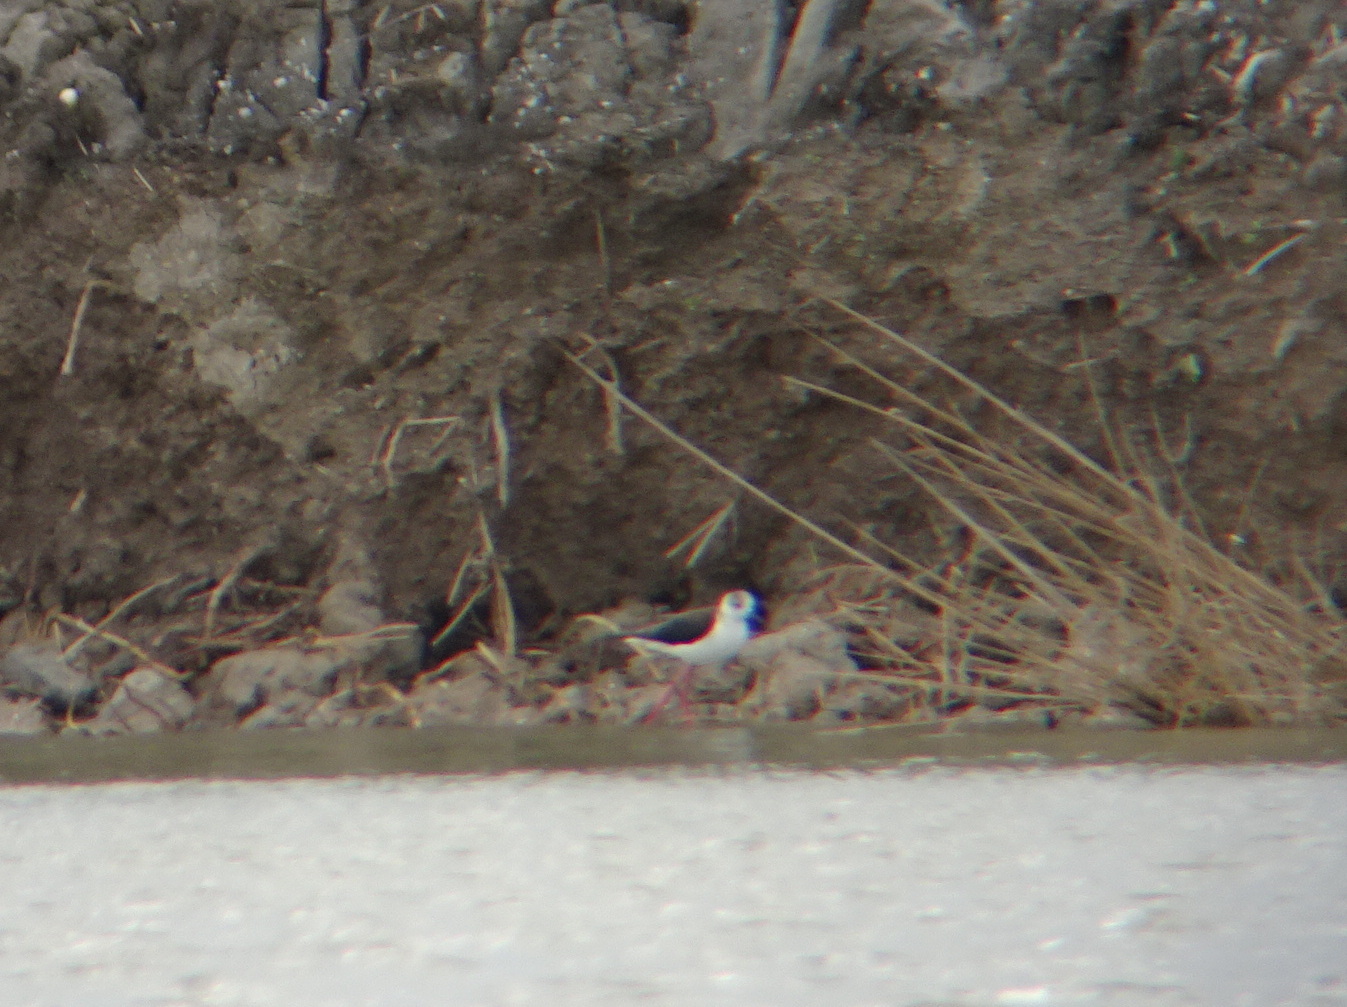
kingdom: Animalia
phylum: Chordata
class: Aves
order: Charadriiformes
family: Recurvirostridae
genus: Himantopus
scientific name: Himantopus himantopus
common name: Black-winged stilt
